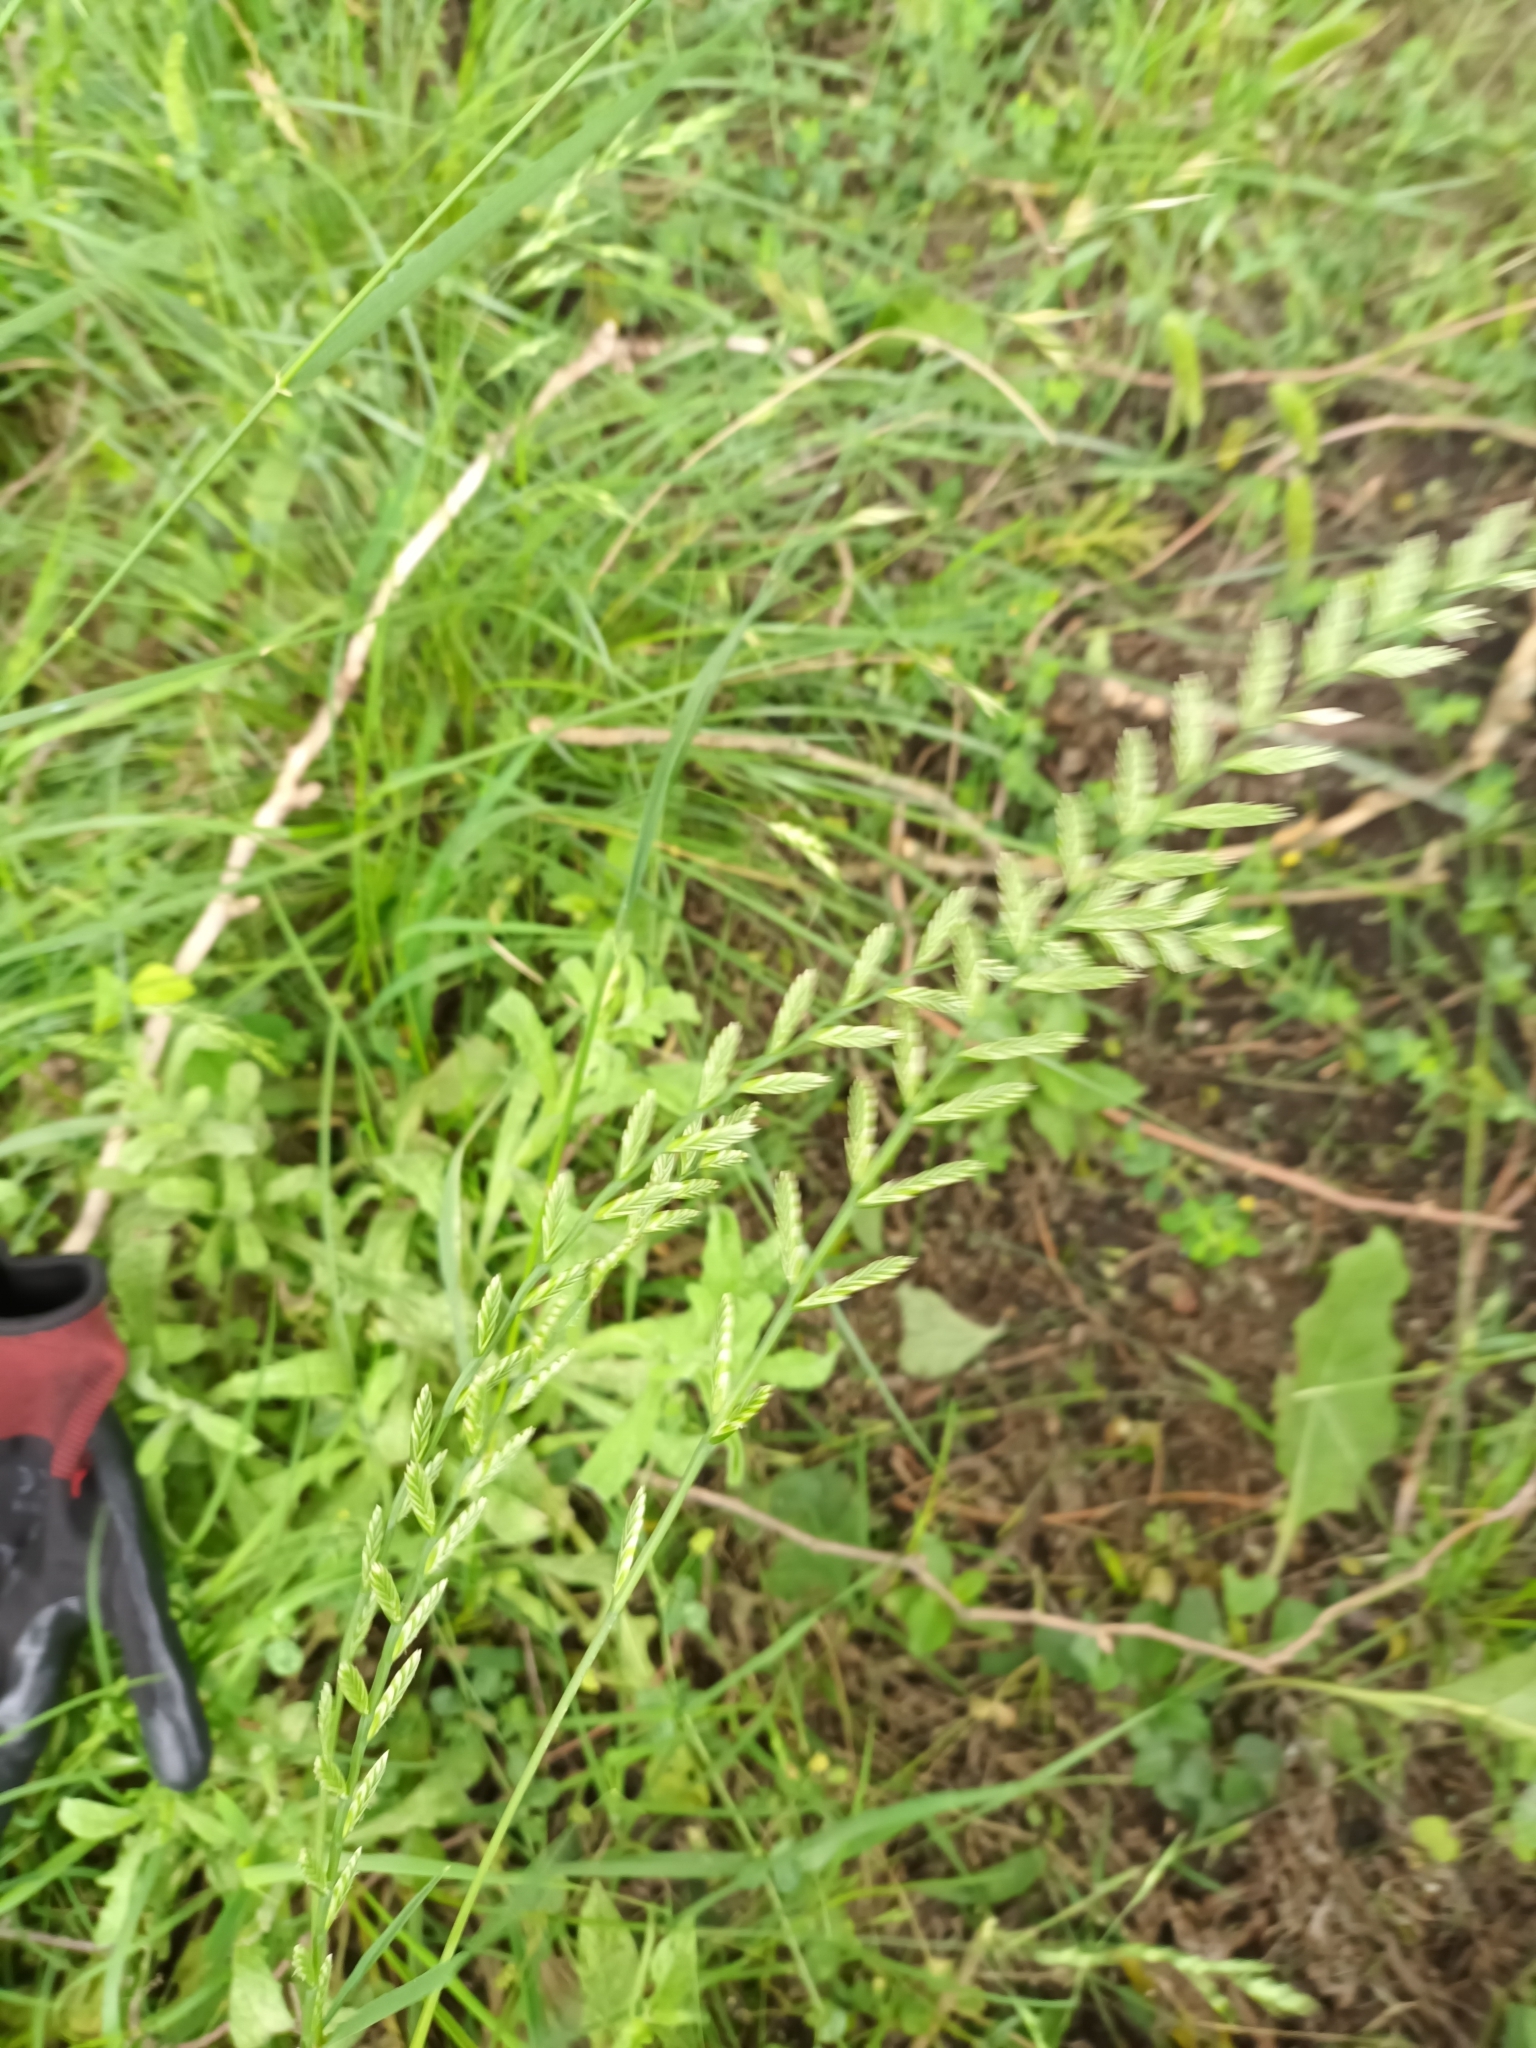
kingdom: Plantae
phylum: Tracheophyta
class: Liliopsida
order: Poales
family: Poaceae
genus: Lolium
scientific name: Lolium multiflorum
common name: Annual ryegrass
